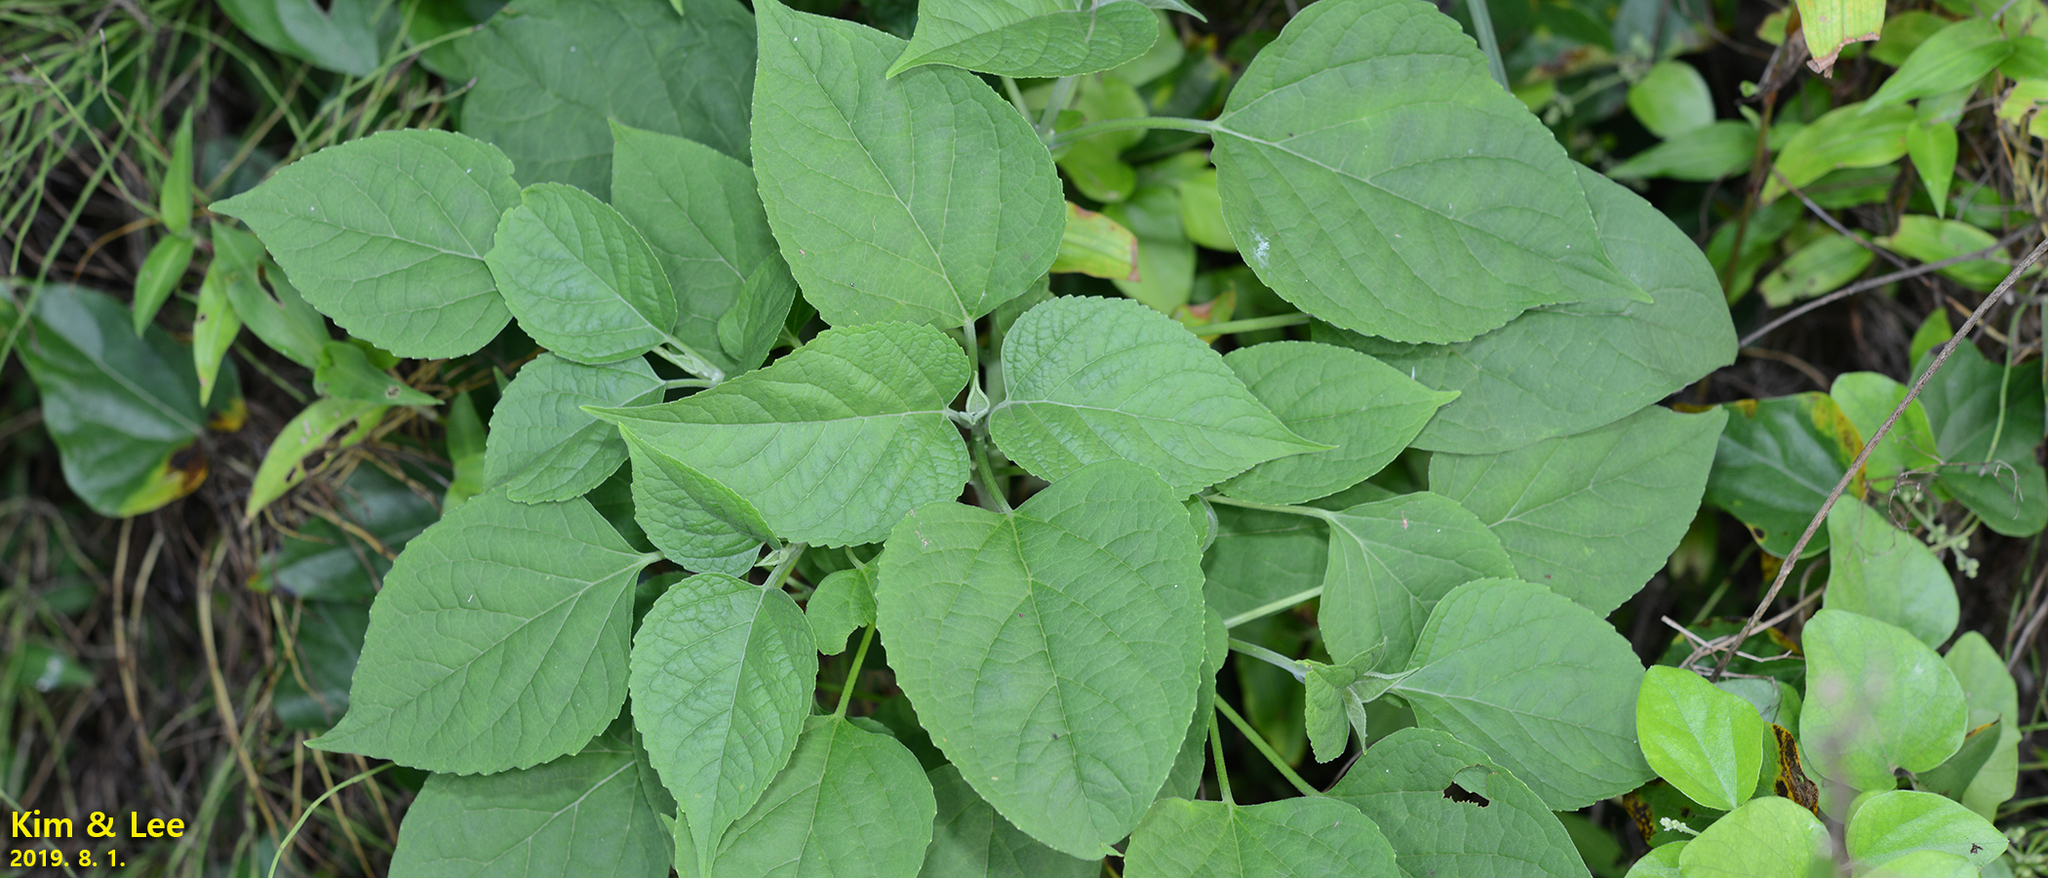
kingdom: Plantae
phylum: Tracheophyta
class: Magnoliopsida
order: Lamiales
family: Lamiaceae
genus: Clerodendrum
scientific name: Clerodendrum trichotomum
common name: Harlequin glorybower
